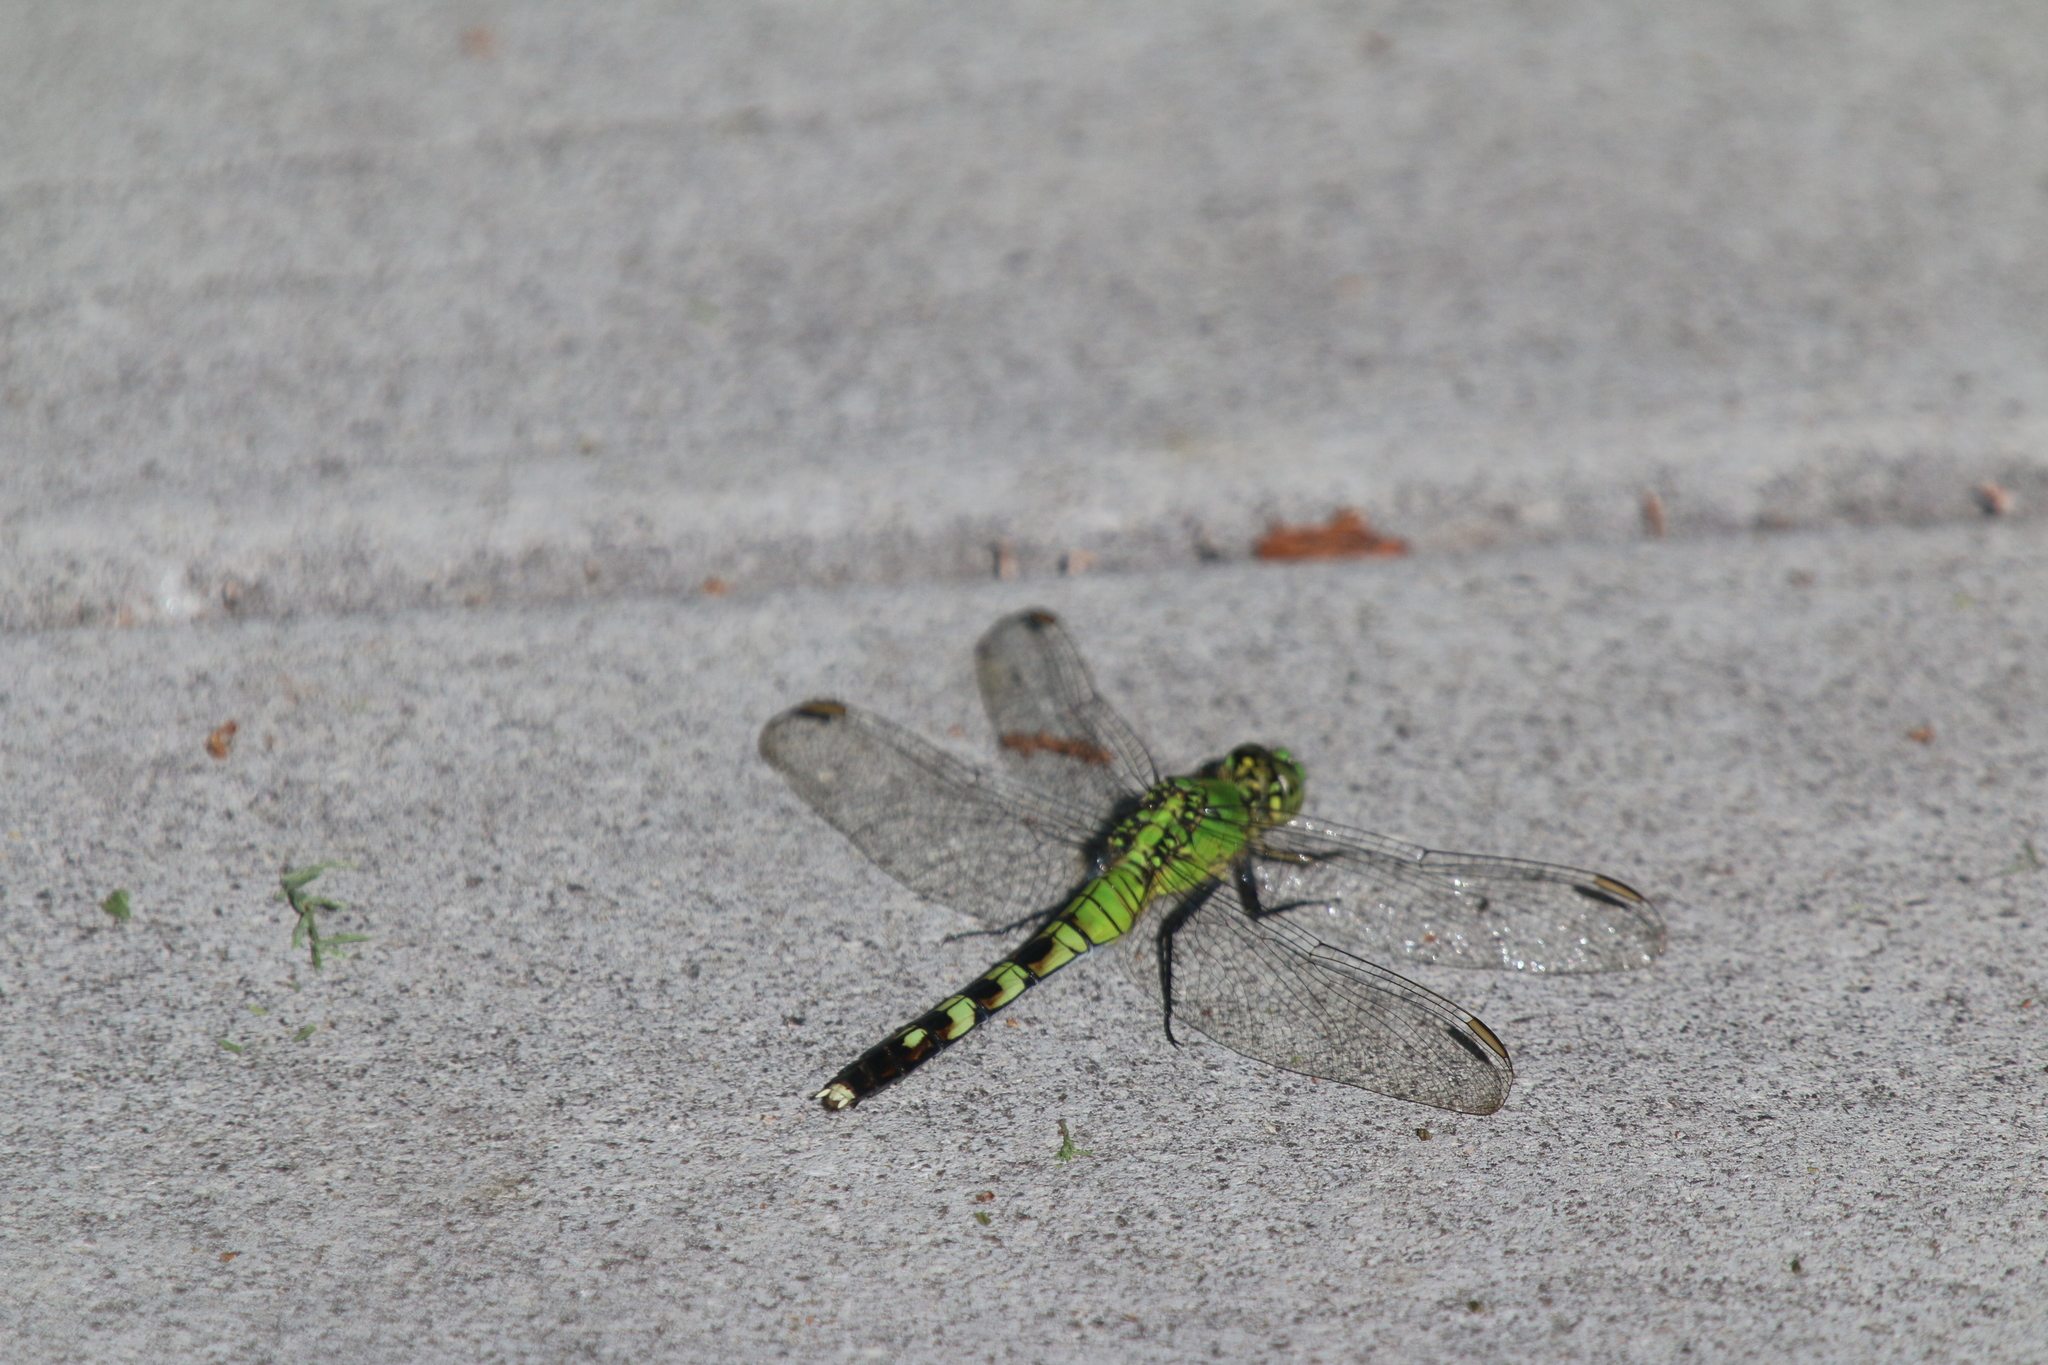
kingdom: Animalia
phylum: Arthropoda
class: Insecta
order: Odonata
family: Libellulidae
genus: Erythemis
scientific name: Erythemis simplicicollis
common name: Eastern pondhawk
